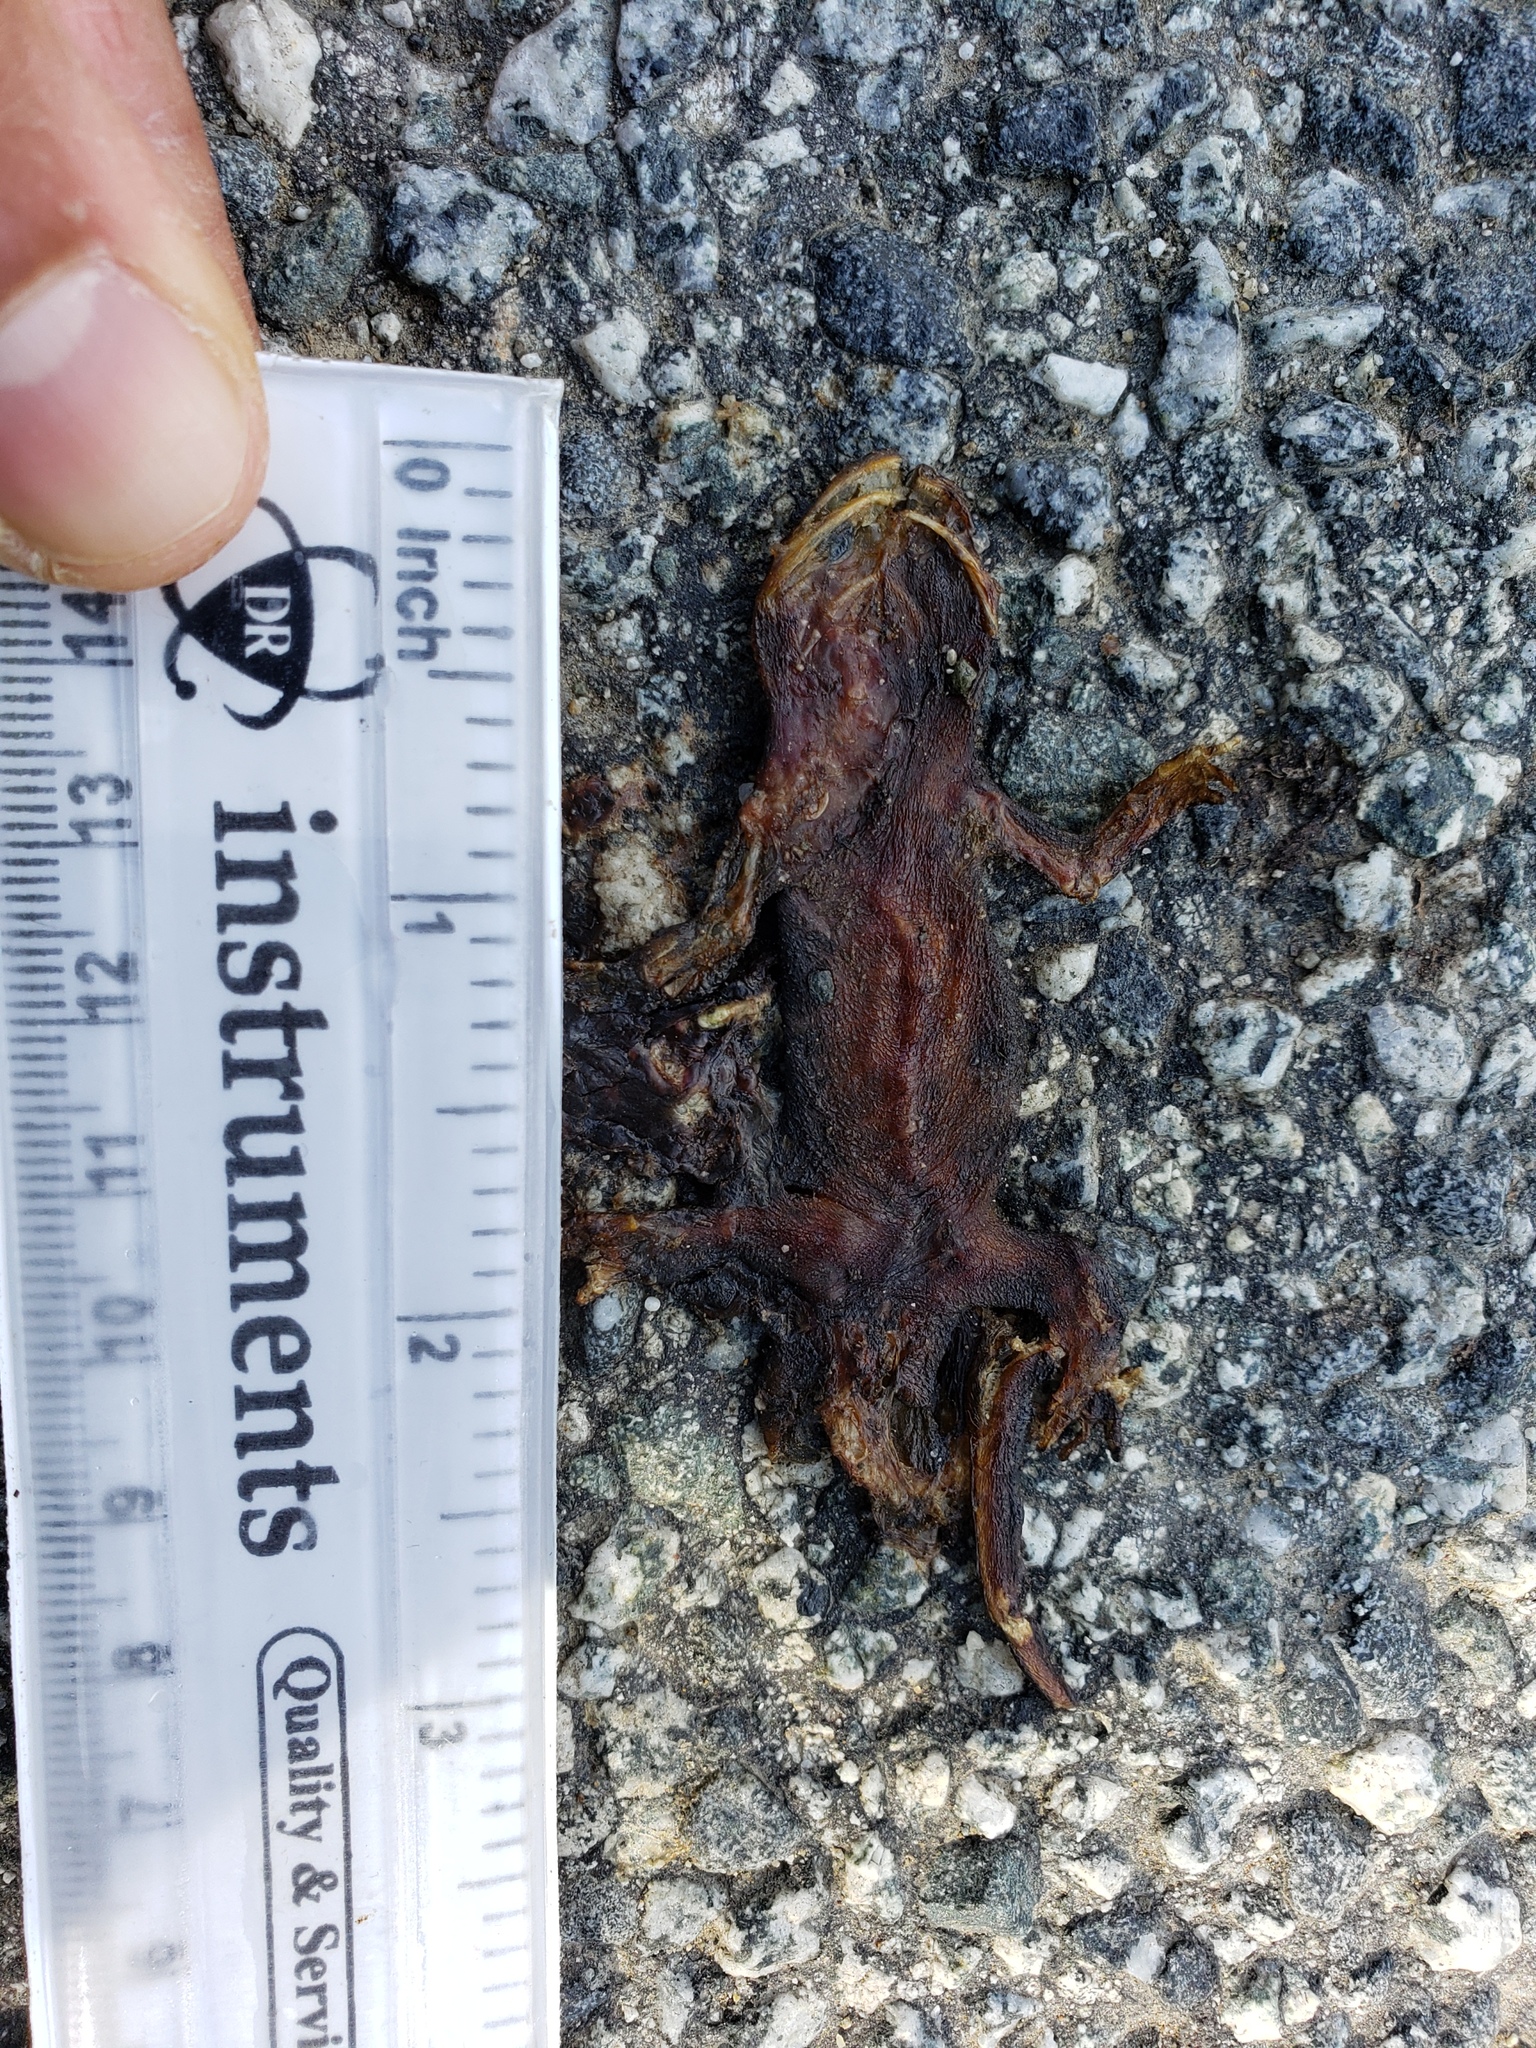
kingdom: Animalia
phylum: Chordata
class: Amphibia
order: Caudata
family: Salamandridae
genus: Taricha
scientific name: Taricha
